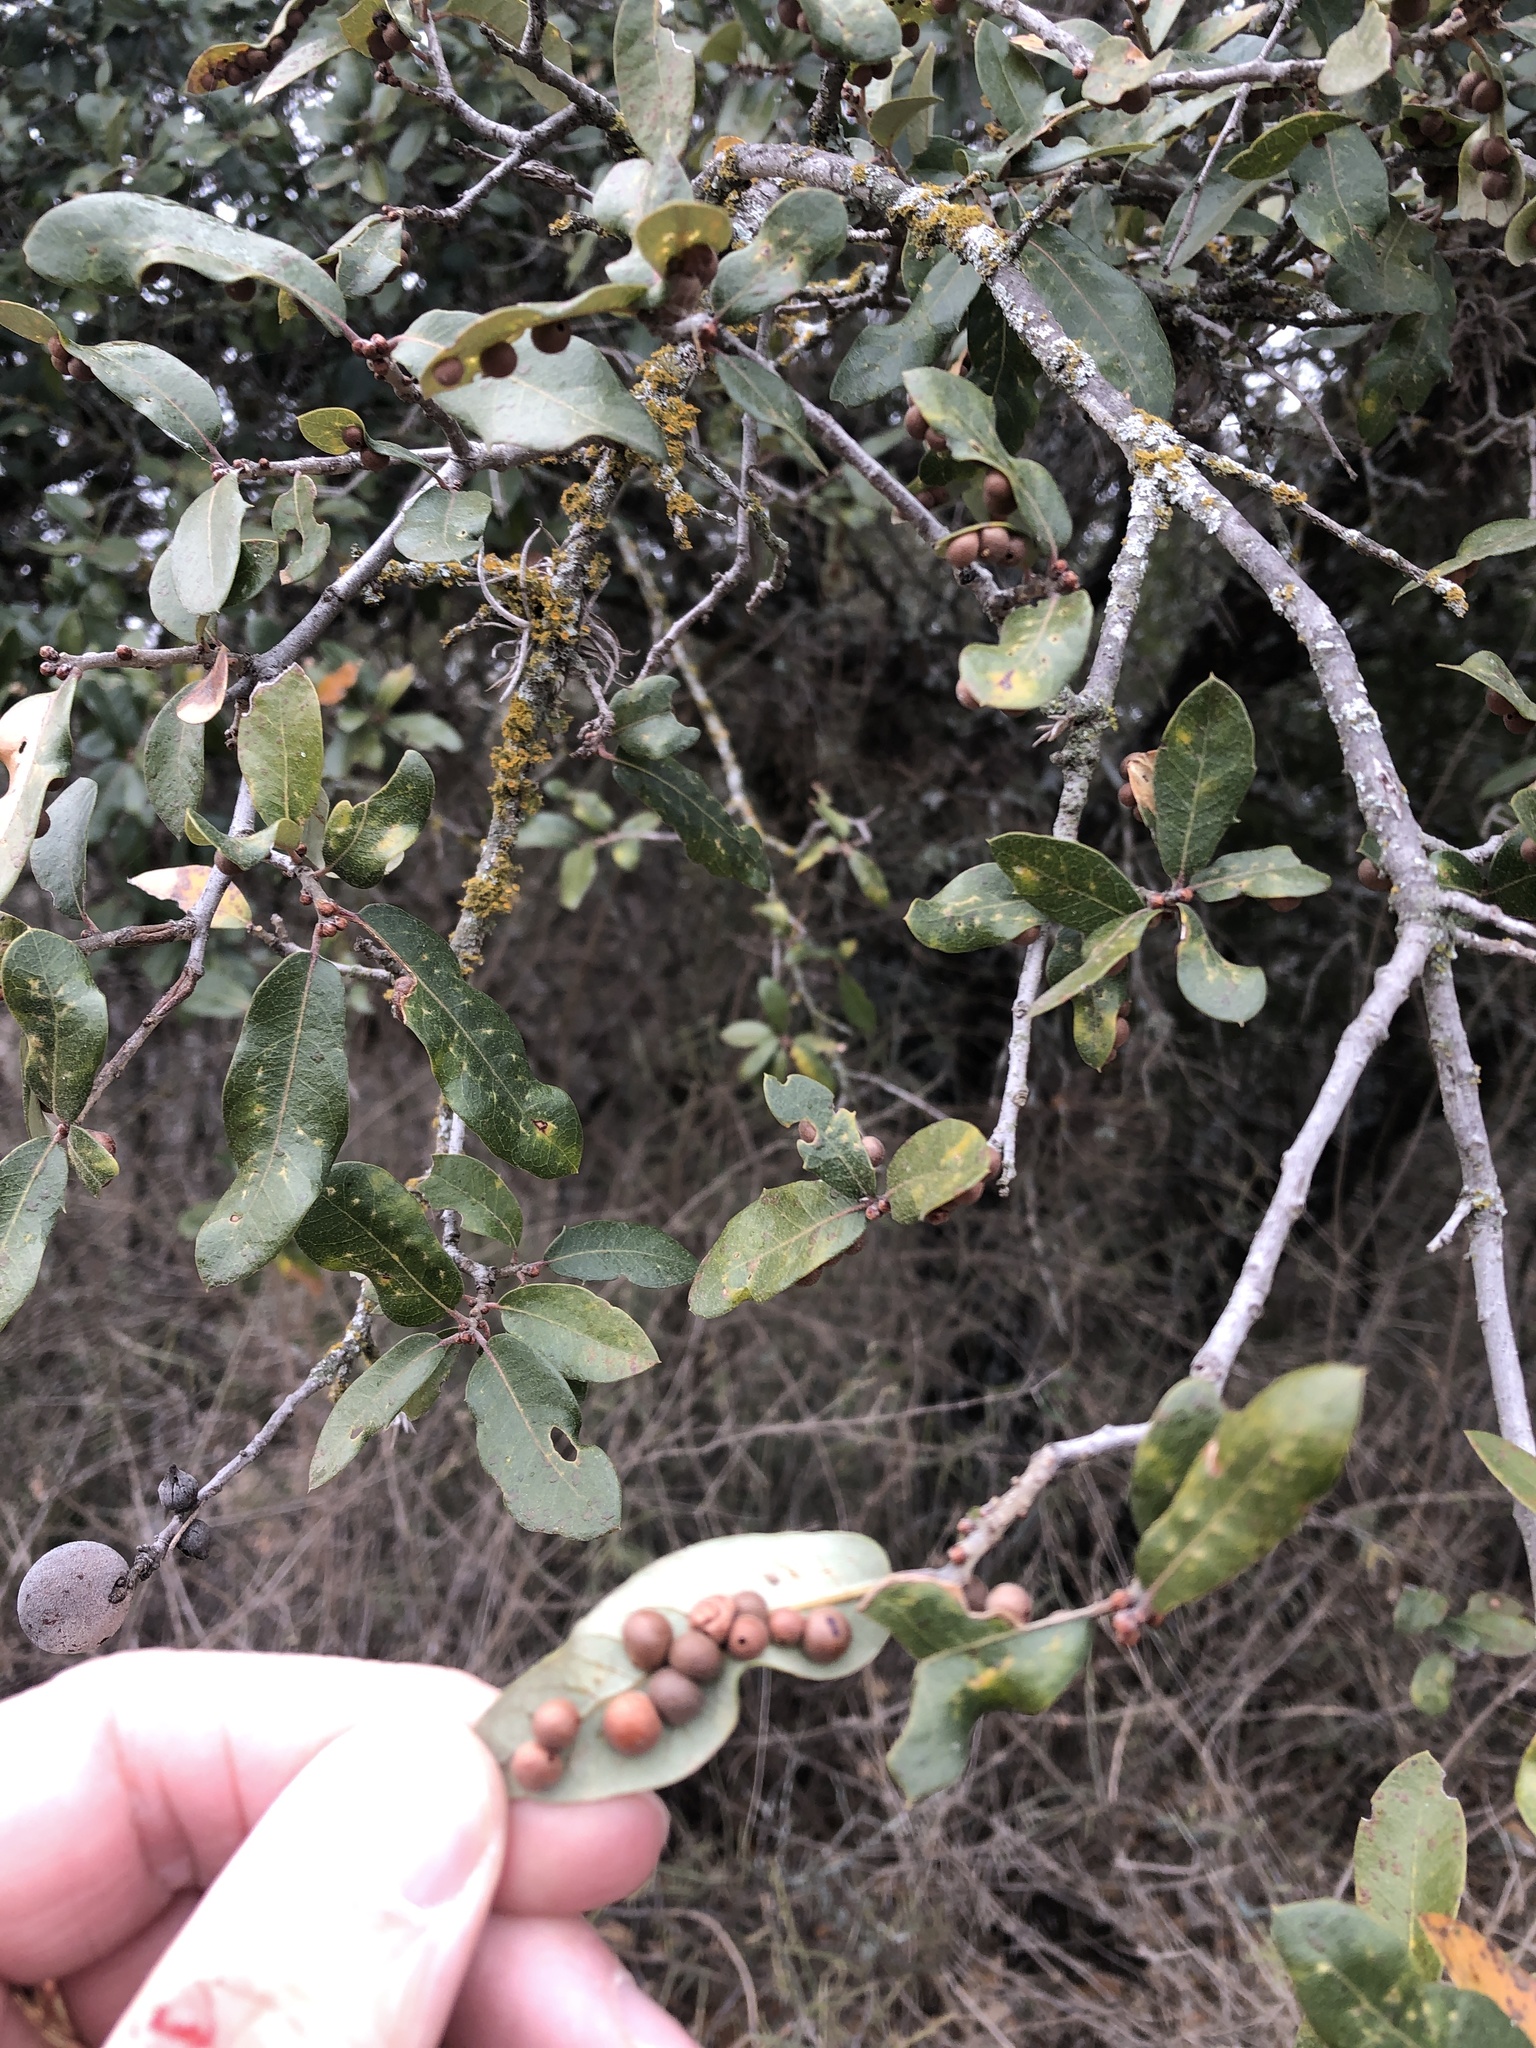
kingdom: Animalia
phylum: Arthropoda
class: Insecta
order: Hymenoptera
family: Cynipidae
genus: Belonocnema
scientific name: Belonocnema kinseyi
